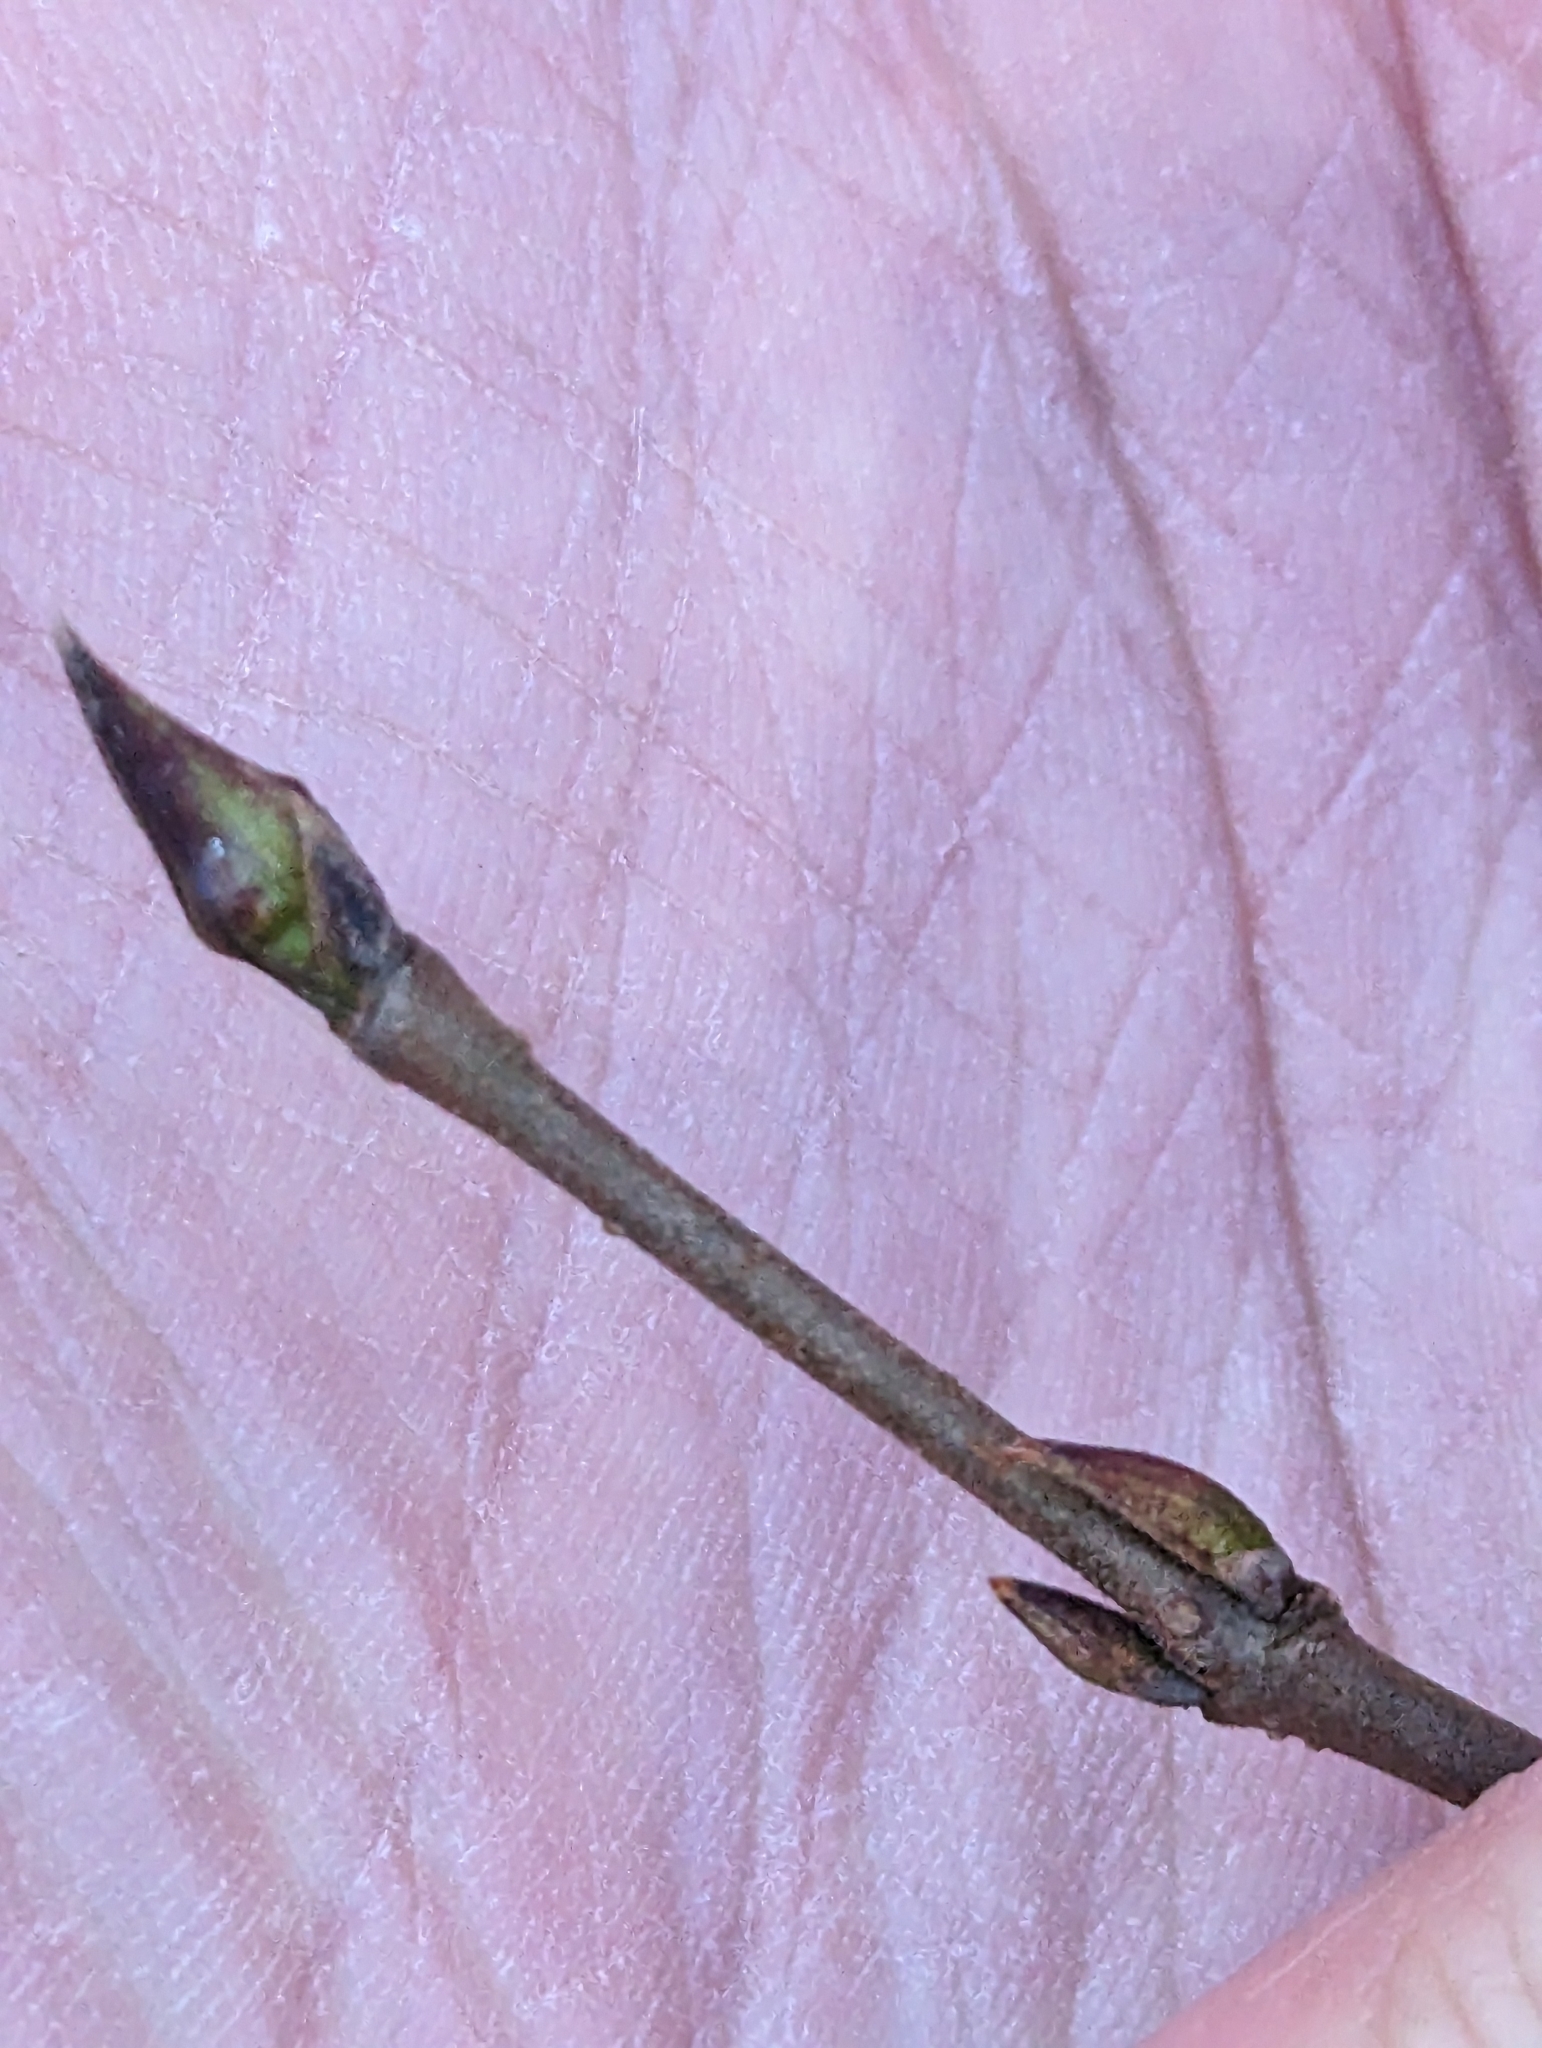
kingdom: Plantae
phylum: Tracheophyta
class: Magnoliopsida
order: Dipsacales
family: Viburnaceae
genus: Viburnum
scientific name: Viburnum acerifolium
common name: Dockmackie
